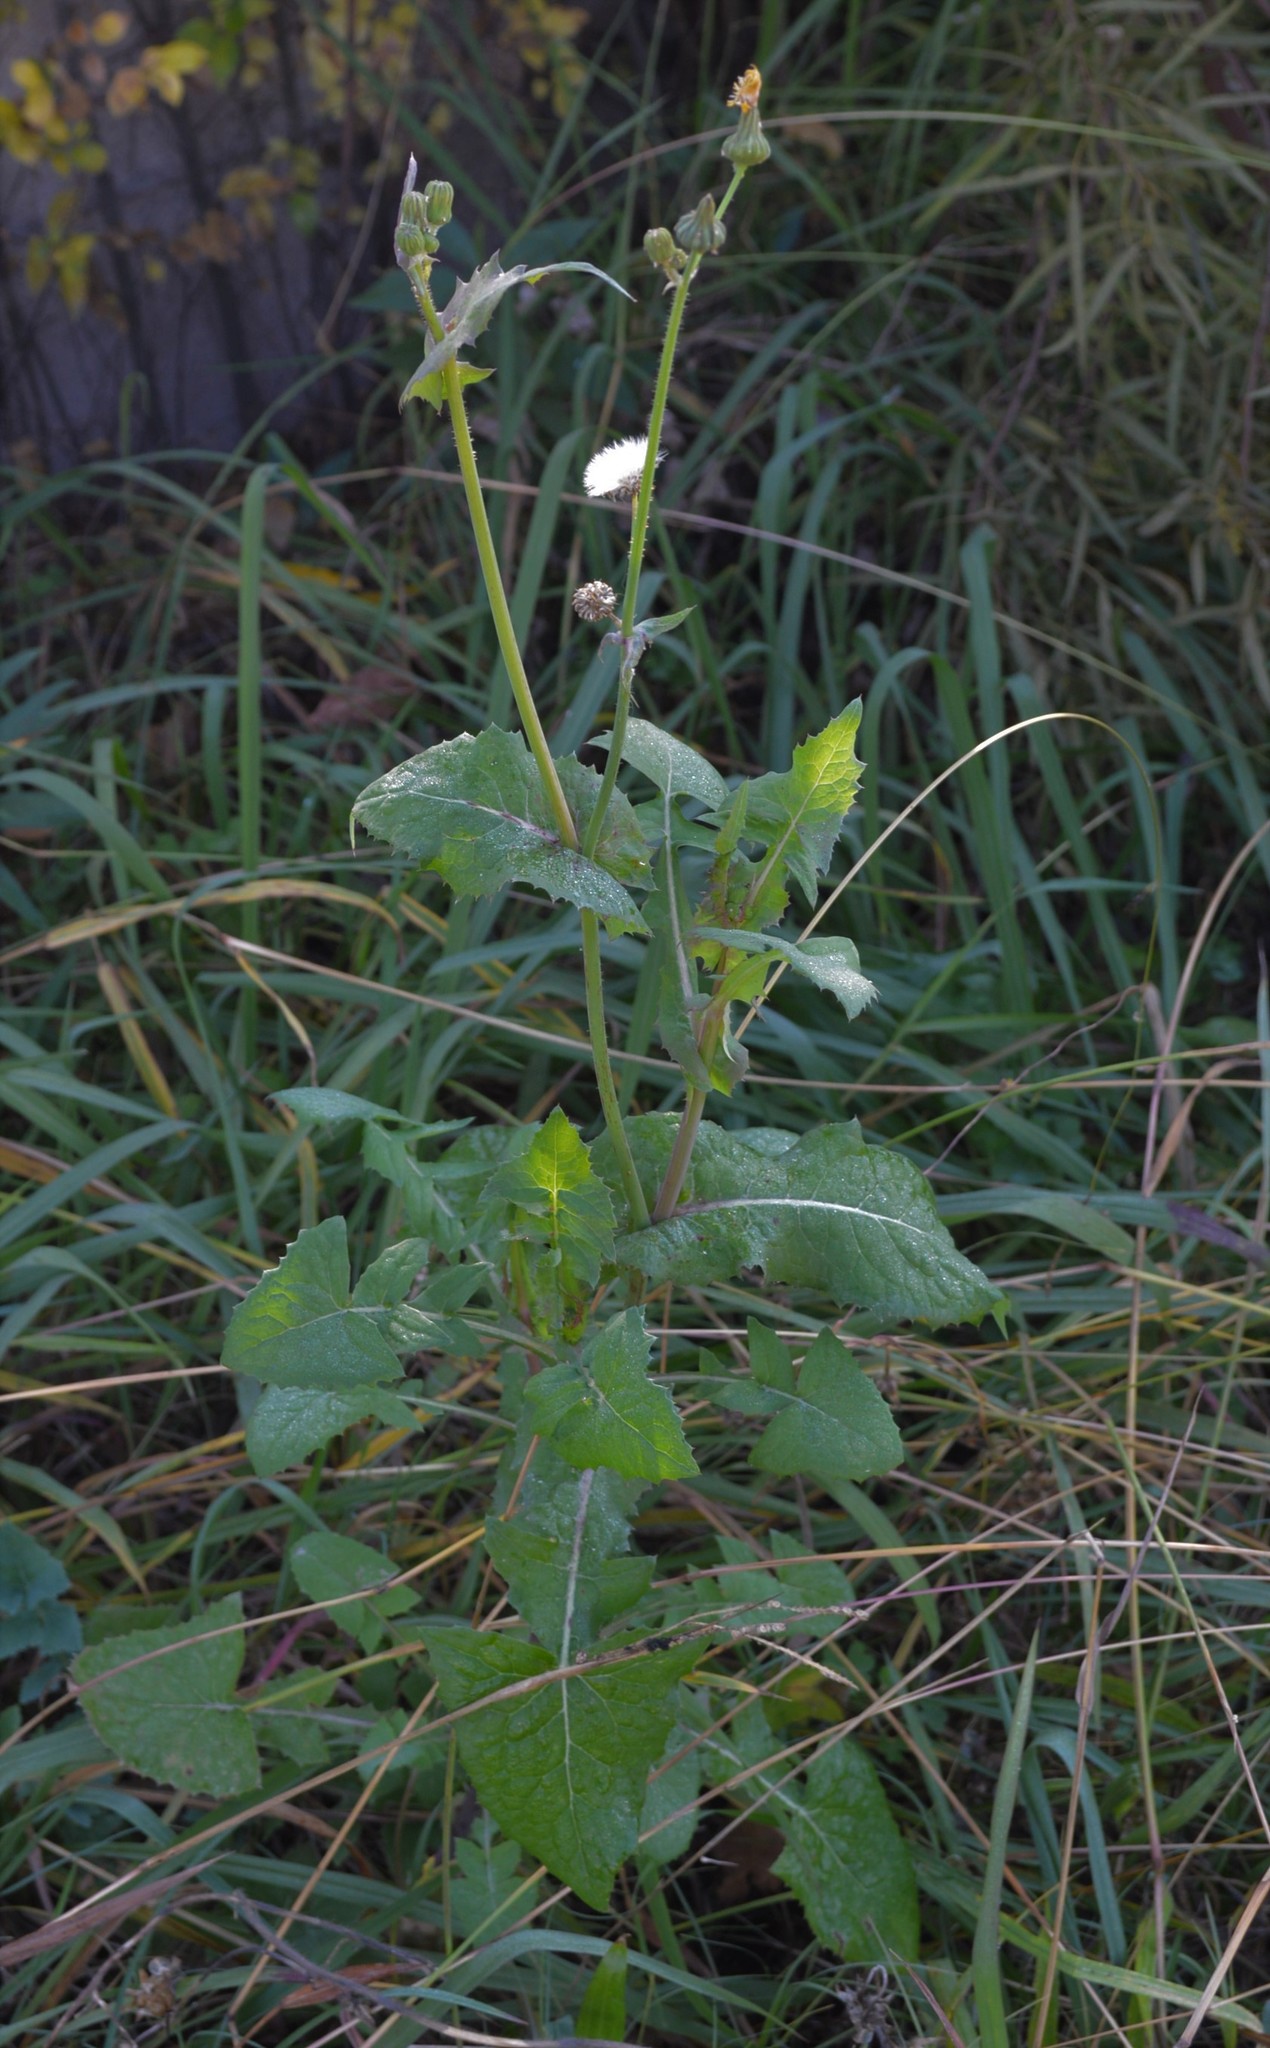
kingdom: Plantae
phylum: Tracheophyta
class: Magnoliopsida
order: Asterales
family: Asteraceae
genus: Sonchus
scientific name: Sonchus oleraceus
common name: Common sowthistle
